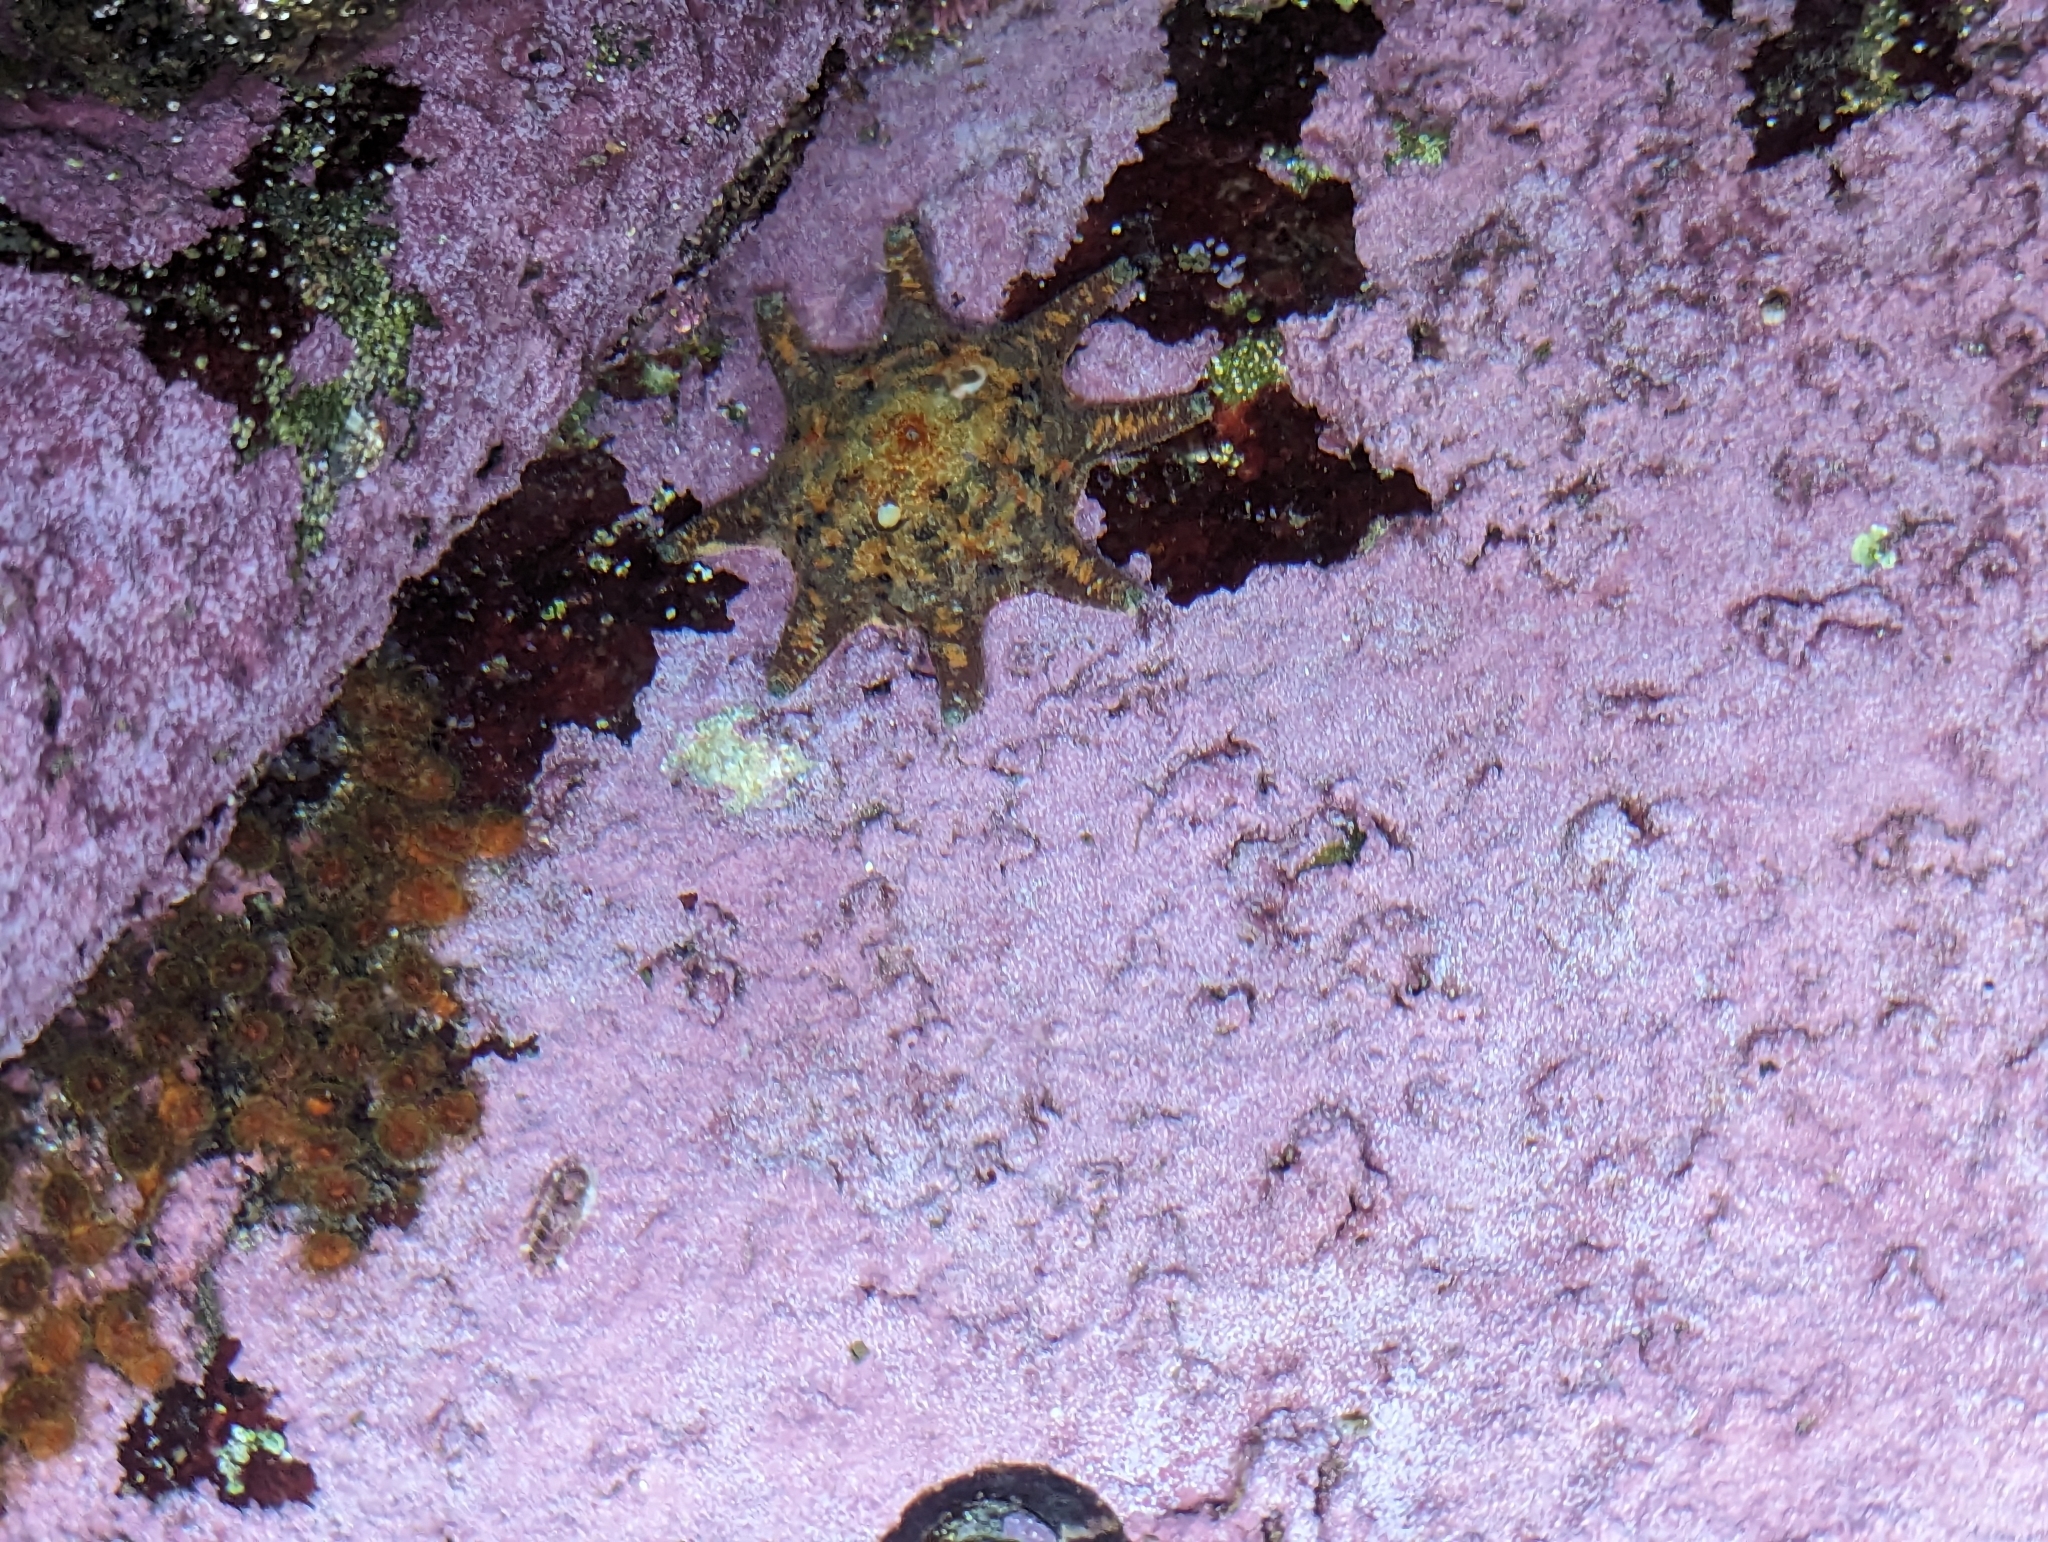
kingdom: Animalia
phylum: Echinodermata
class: Asteroidea
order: Valvatida
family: Asterinidae
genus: Meridiastra
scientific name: Meridiastra calcar
